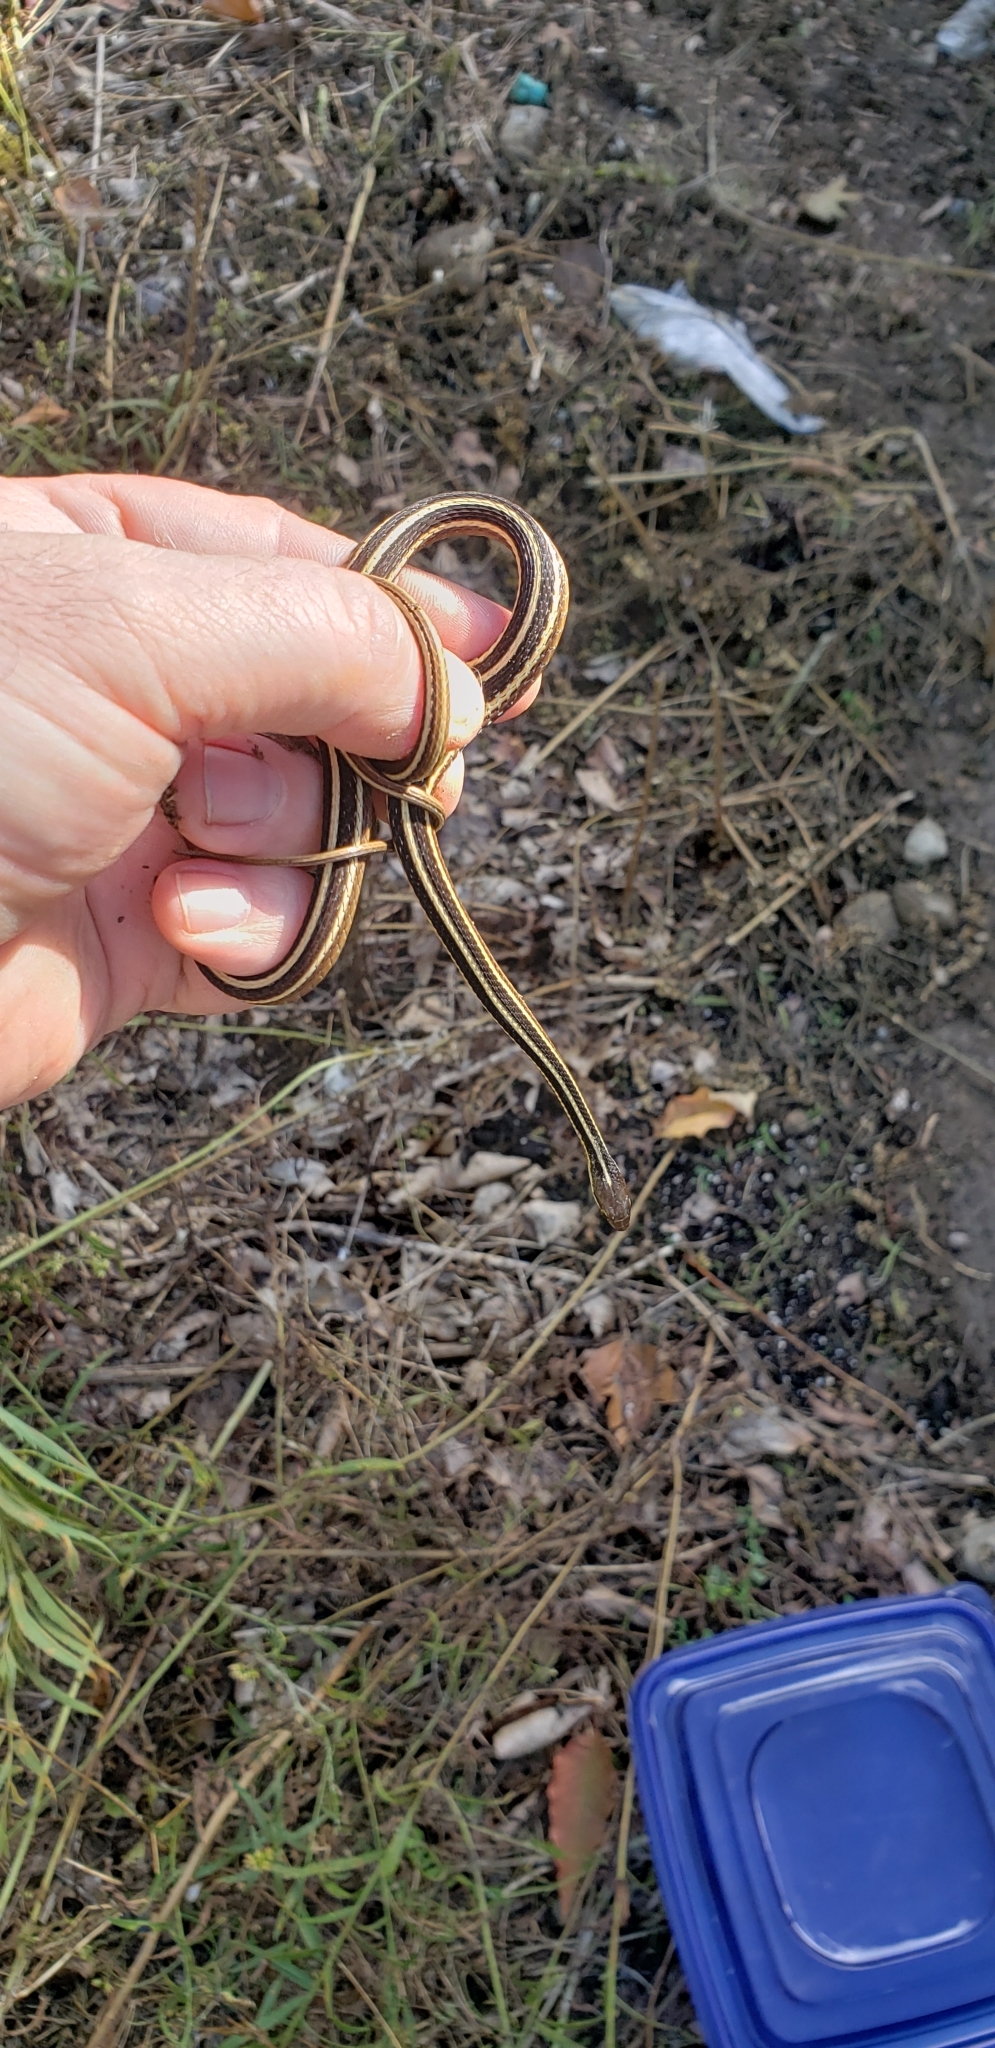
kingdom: Animalia
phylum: Chordata
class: Squamata
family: Colubridae
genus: Thamnophis
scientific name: Thamnophis saurita
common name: Eastern ribbonsnake
